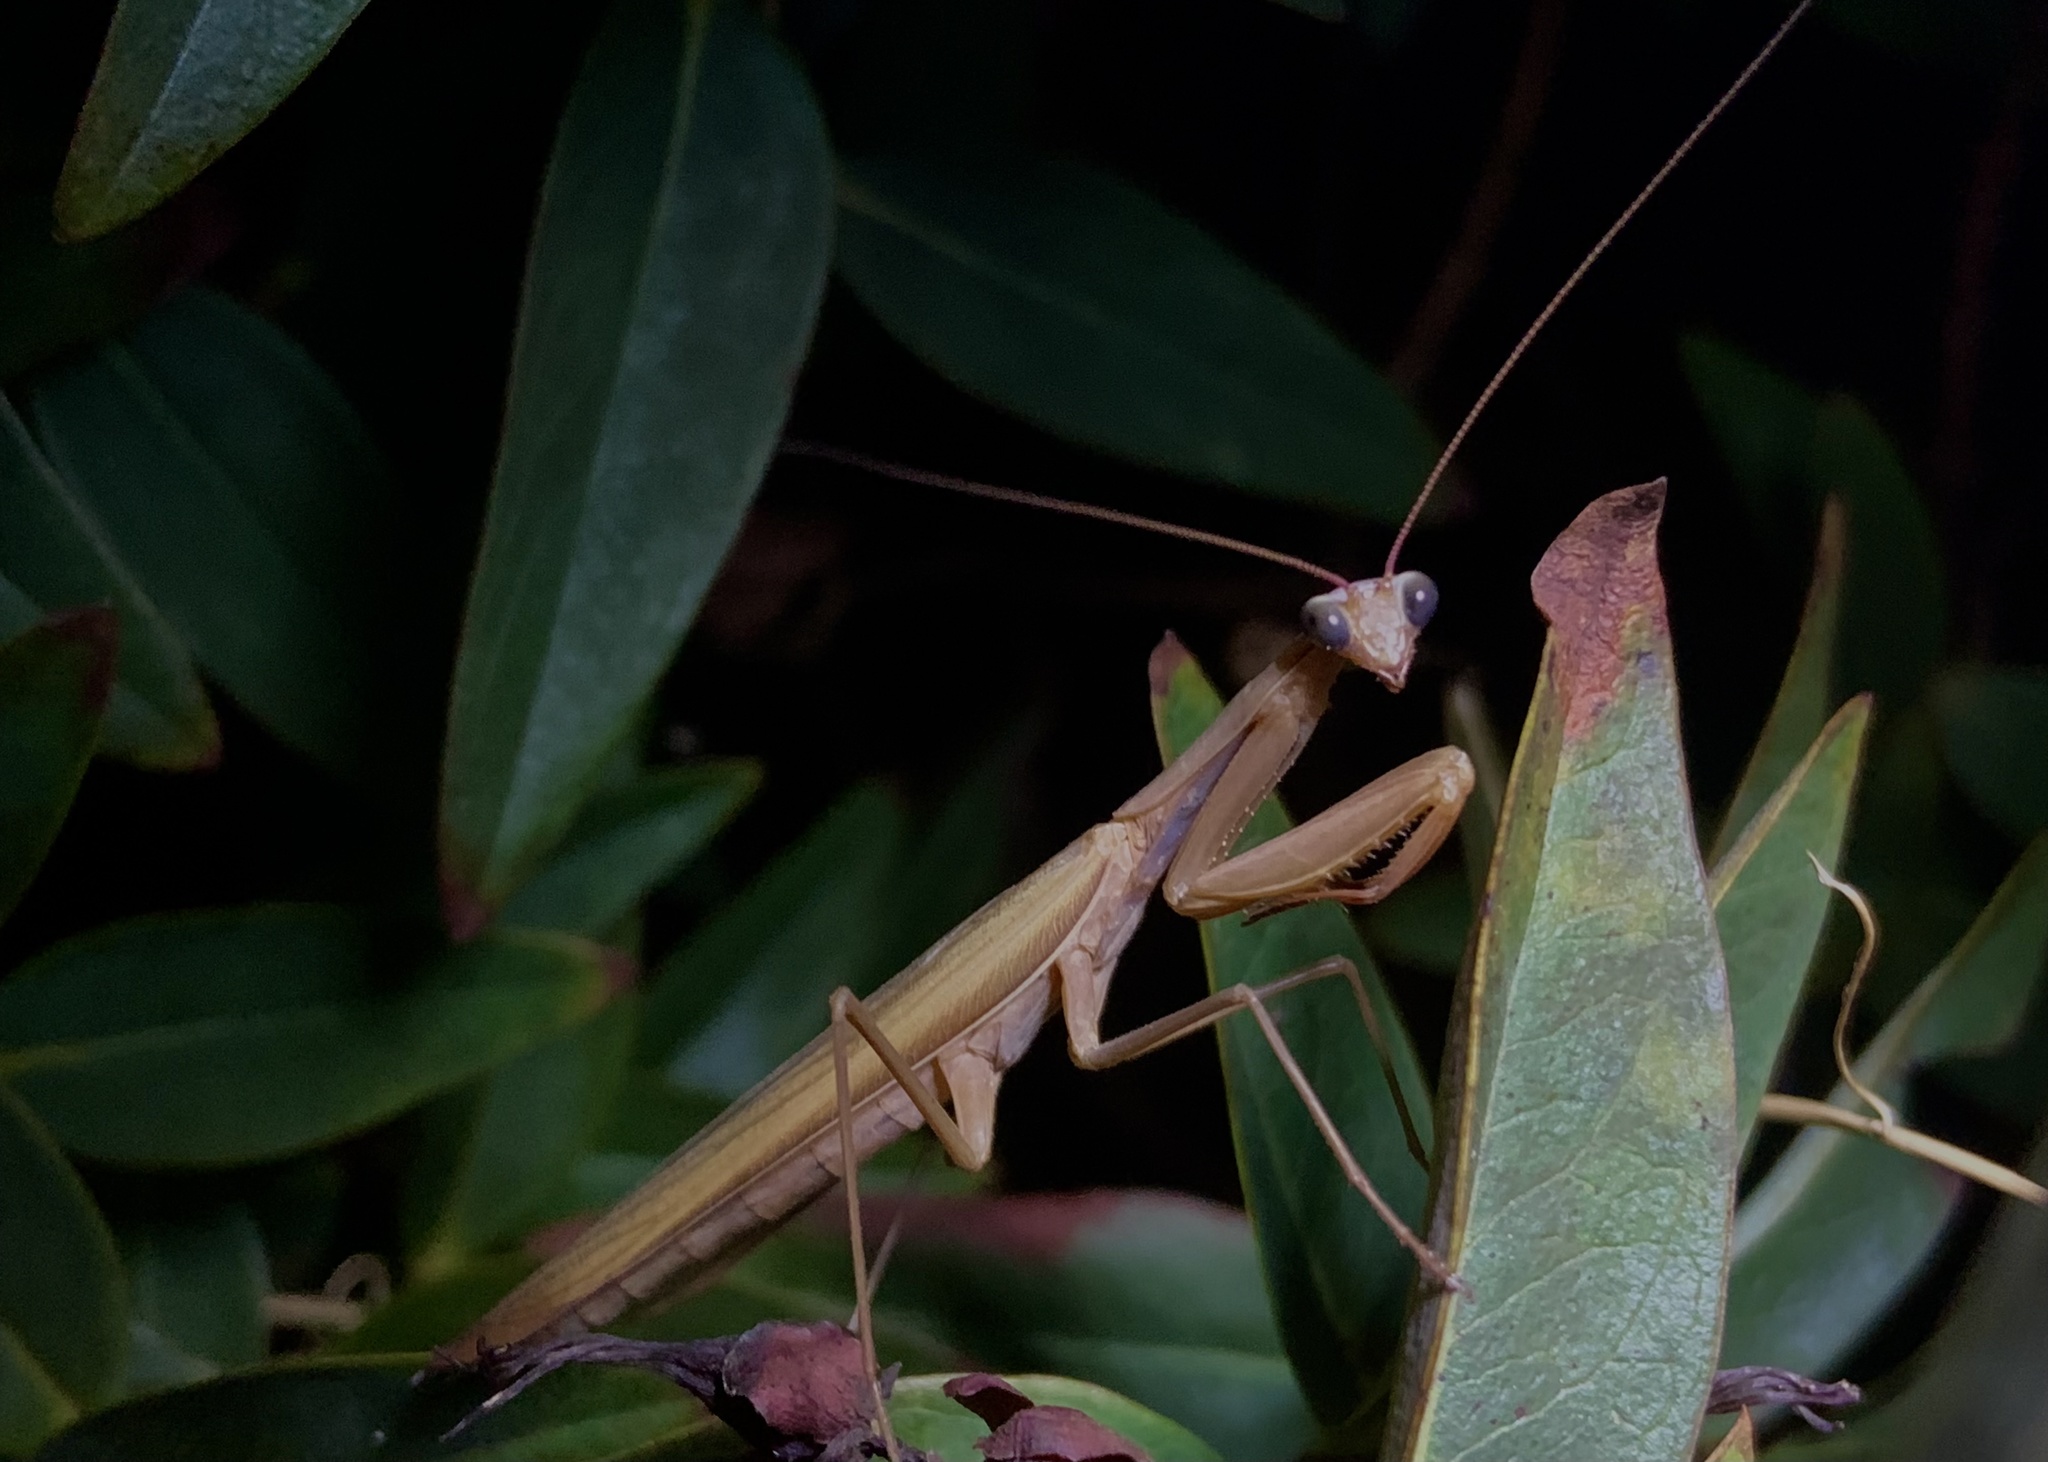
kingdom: Animalia
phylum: Arthropoda
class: Insecta
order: Mantodea
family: Mantidae
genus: Mantis
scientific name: Mantis religiosa
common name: Praying mantis
